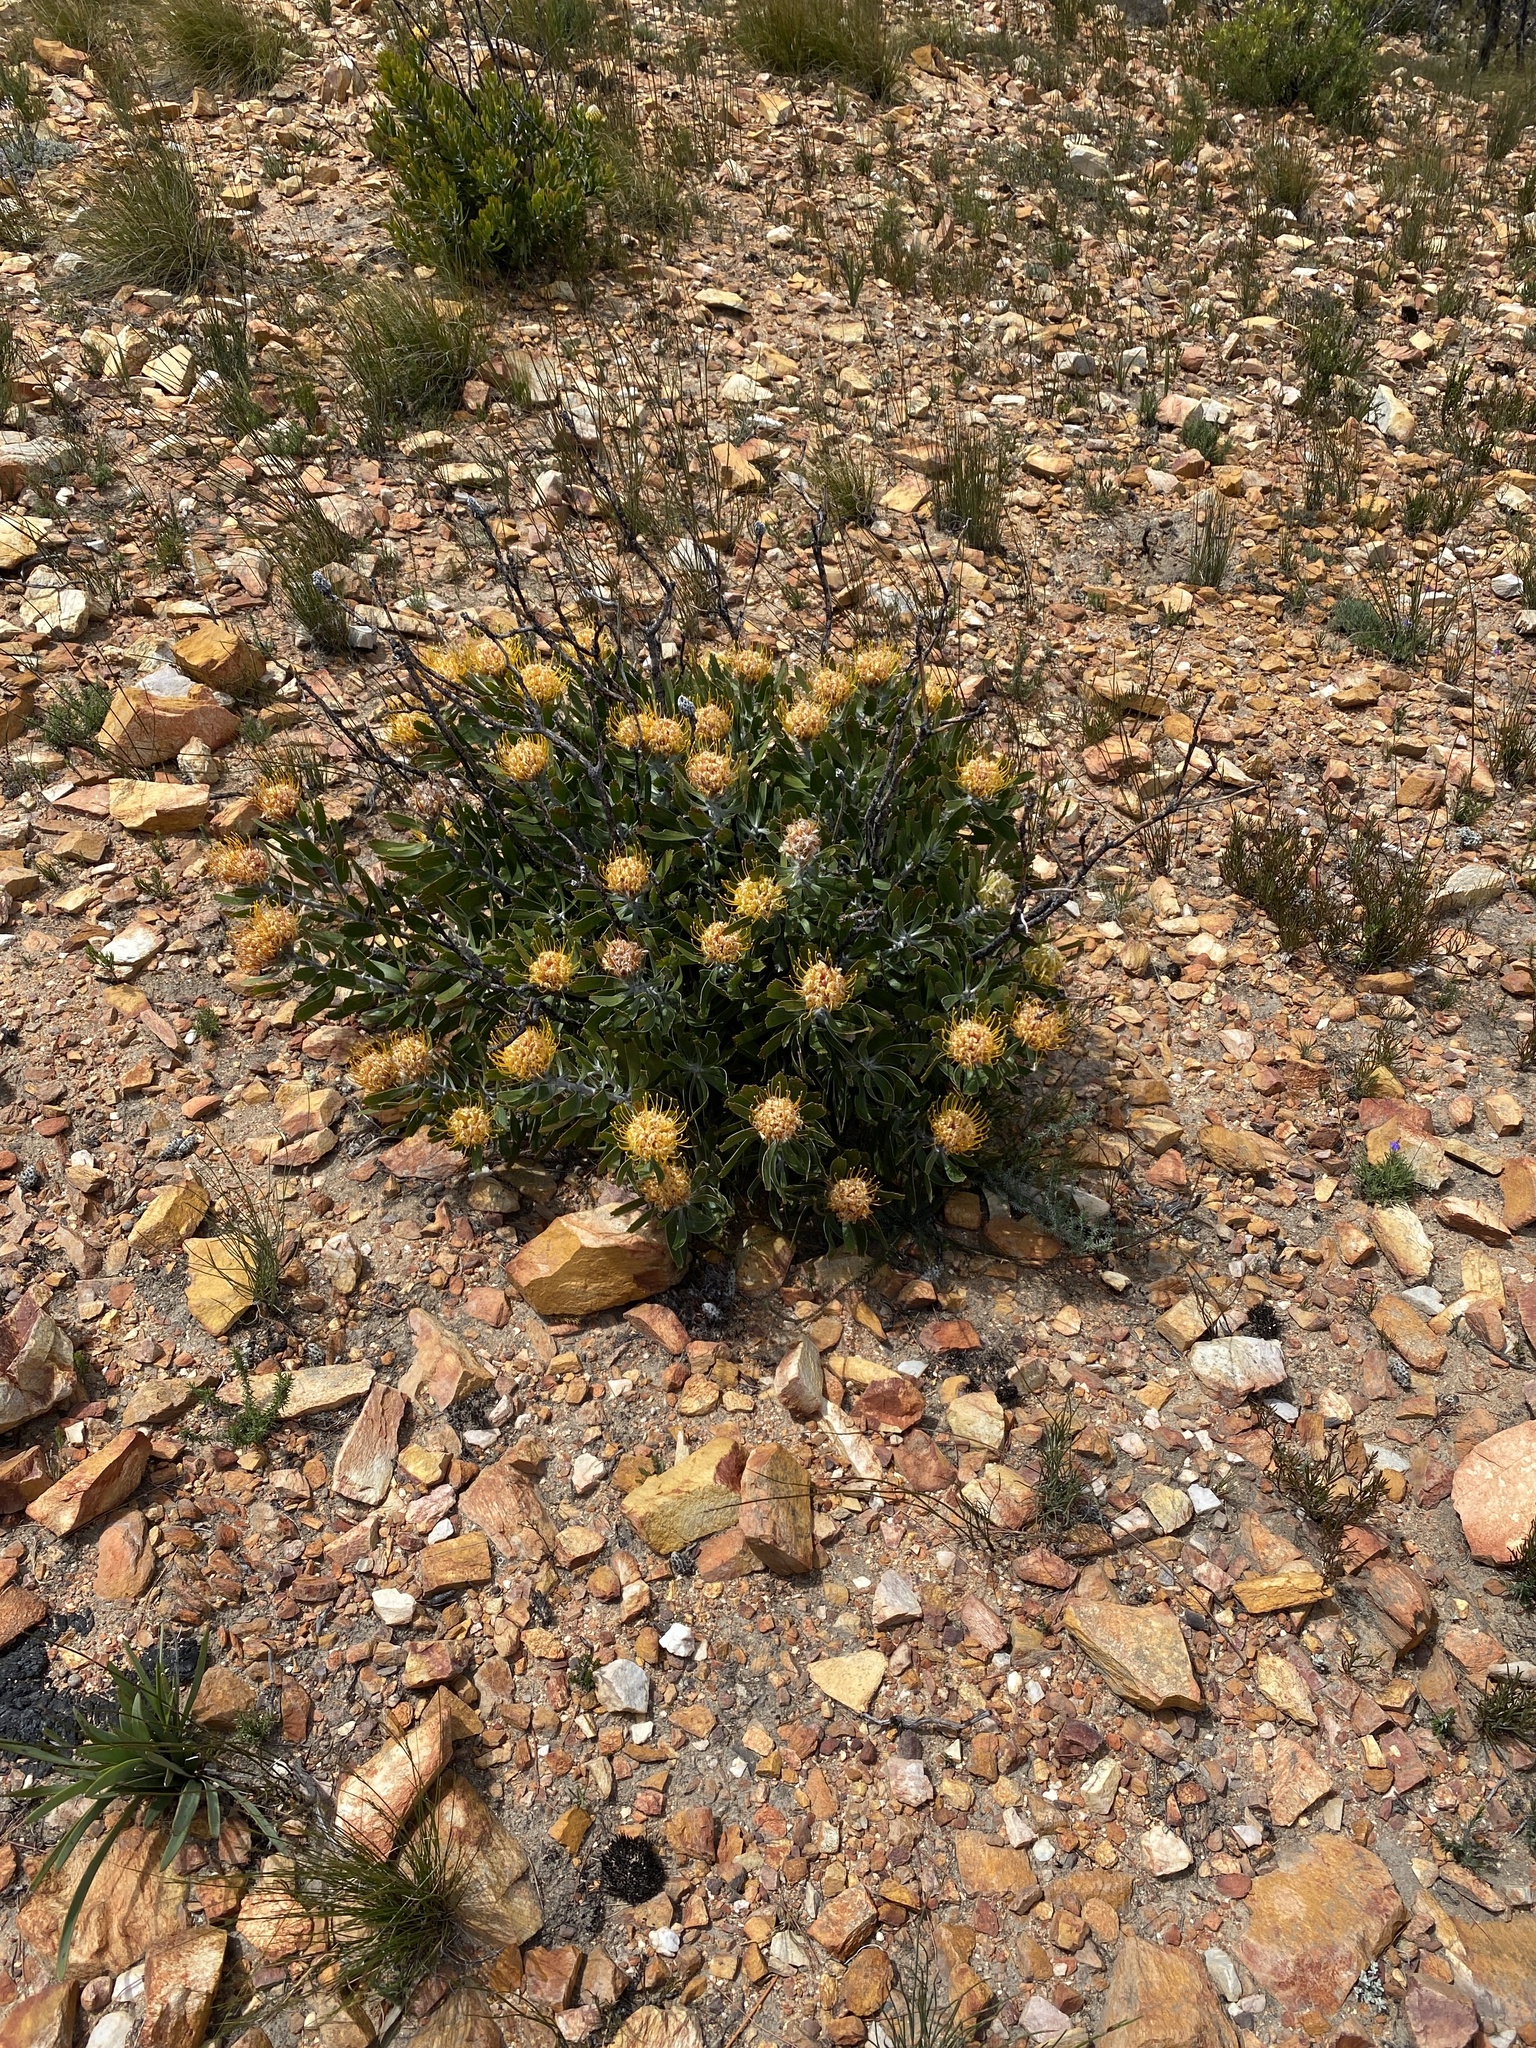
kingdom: Plantae
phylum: Tracheophyta
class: Magnoliopsida
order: Proteales
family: Proteaceae
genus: Leucospermum
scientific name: Leucospermum cuneiforme
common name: Common pincushion
